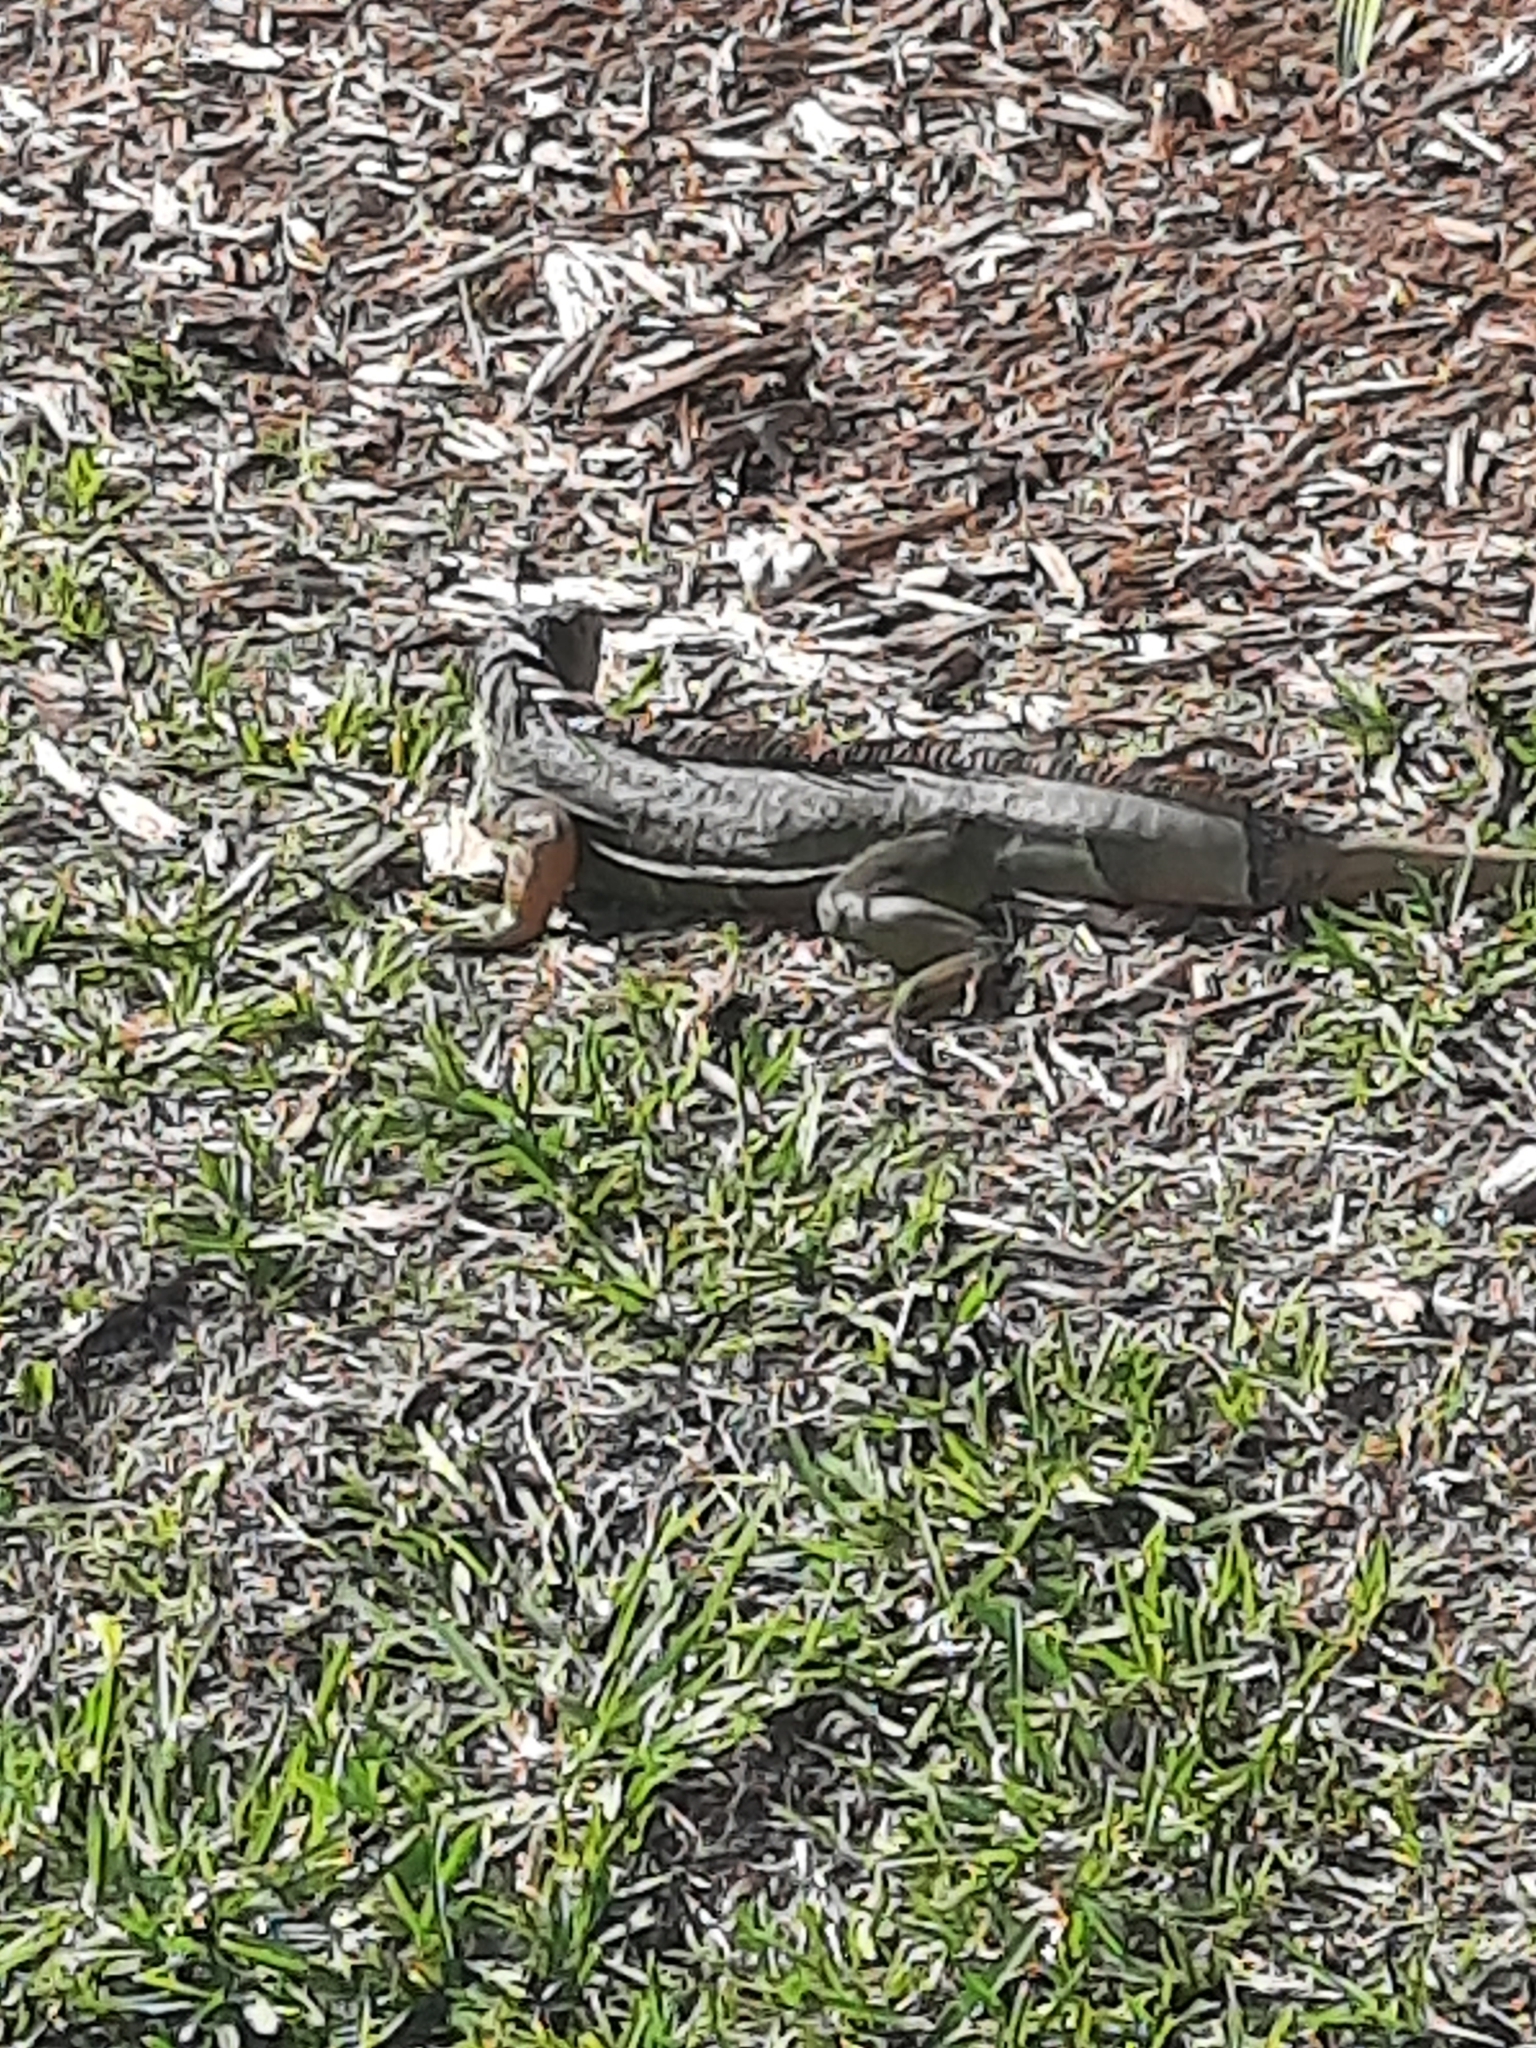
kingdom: Animalia
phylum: Chordata
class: Squamata
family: Iguanidae
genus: Iguana
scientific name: Iguana iguana
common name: Green iguana
